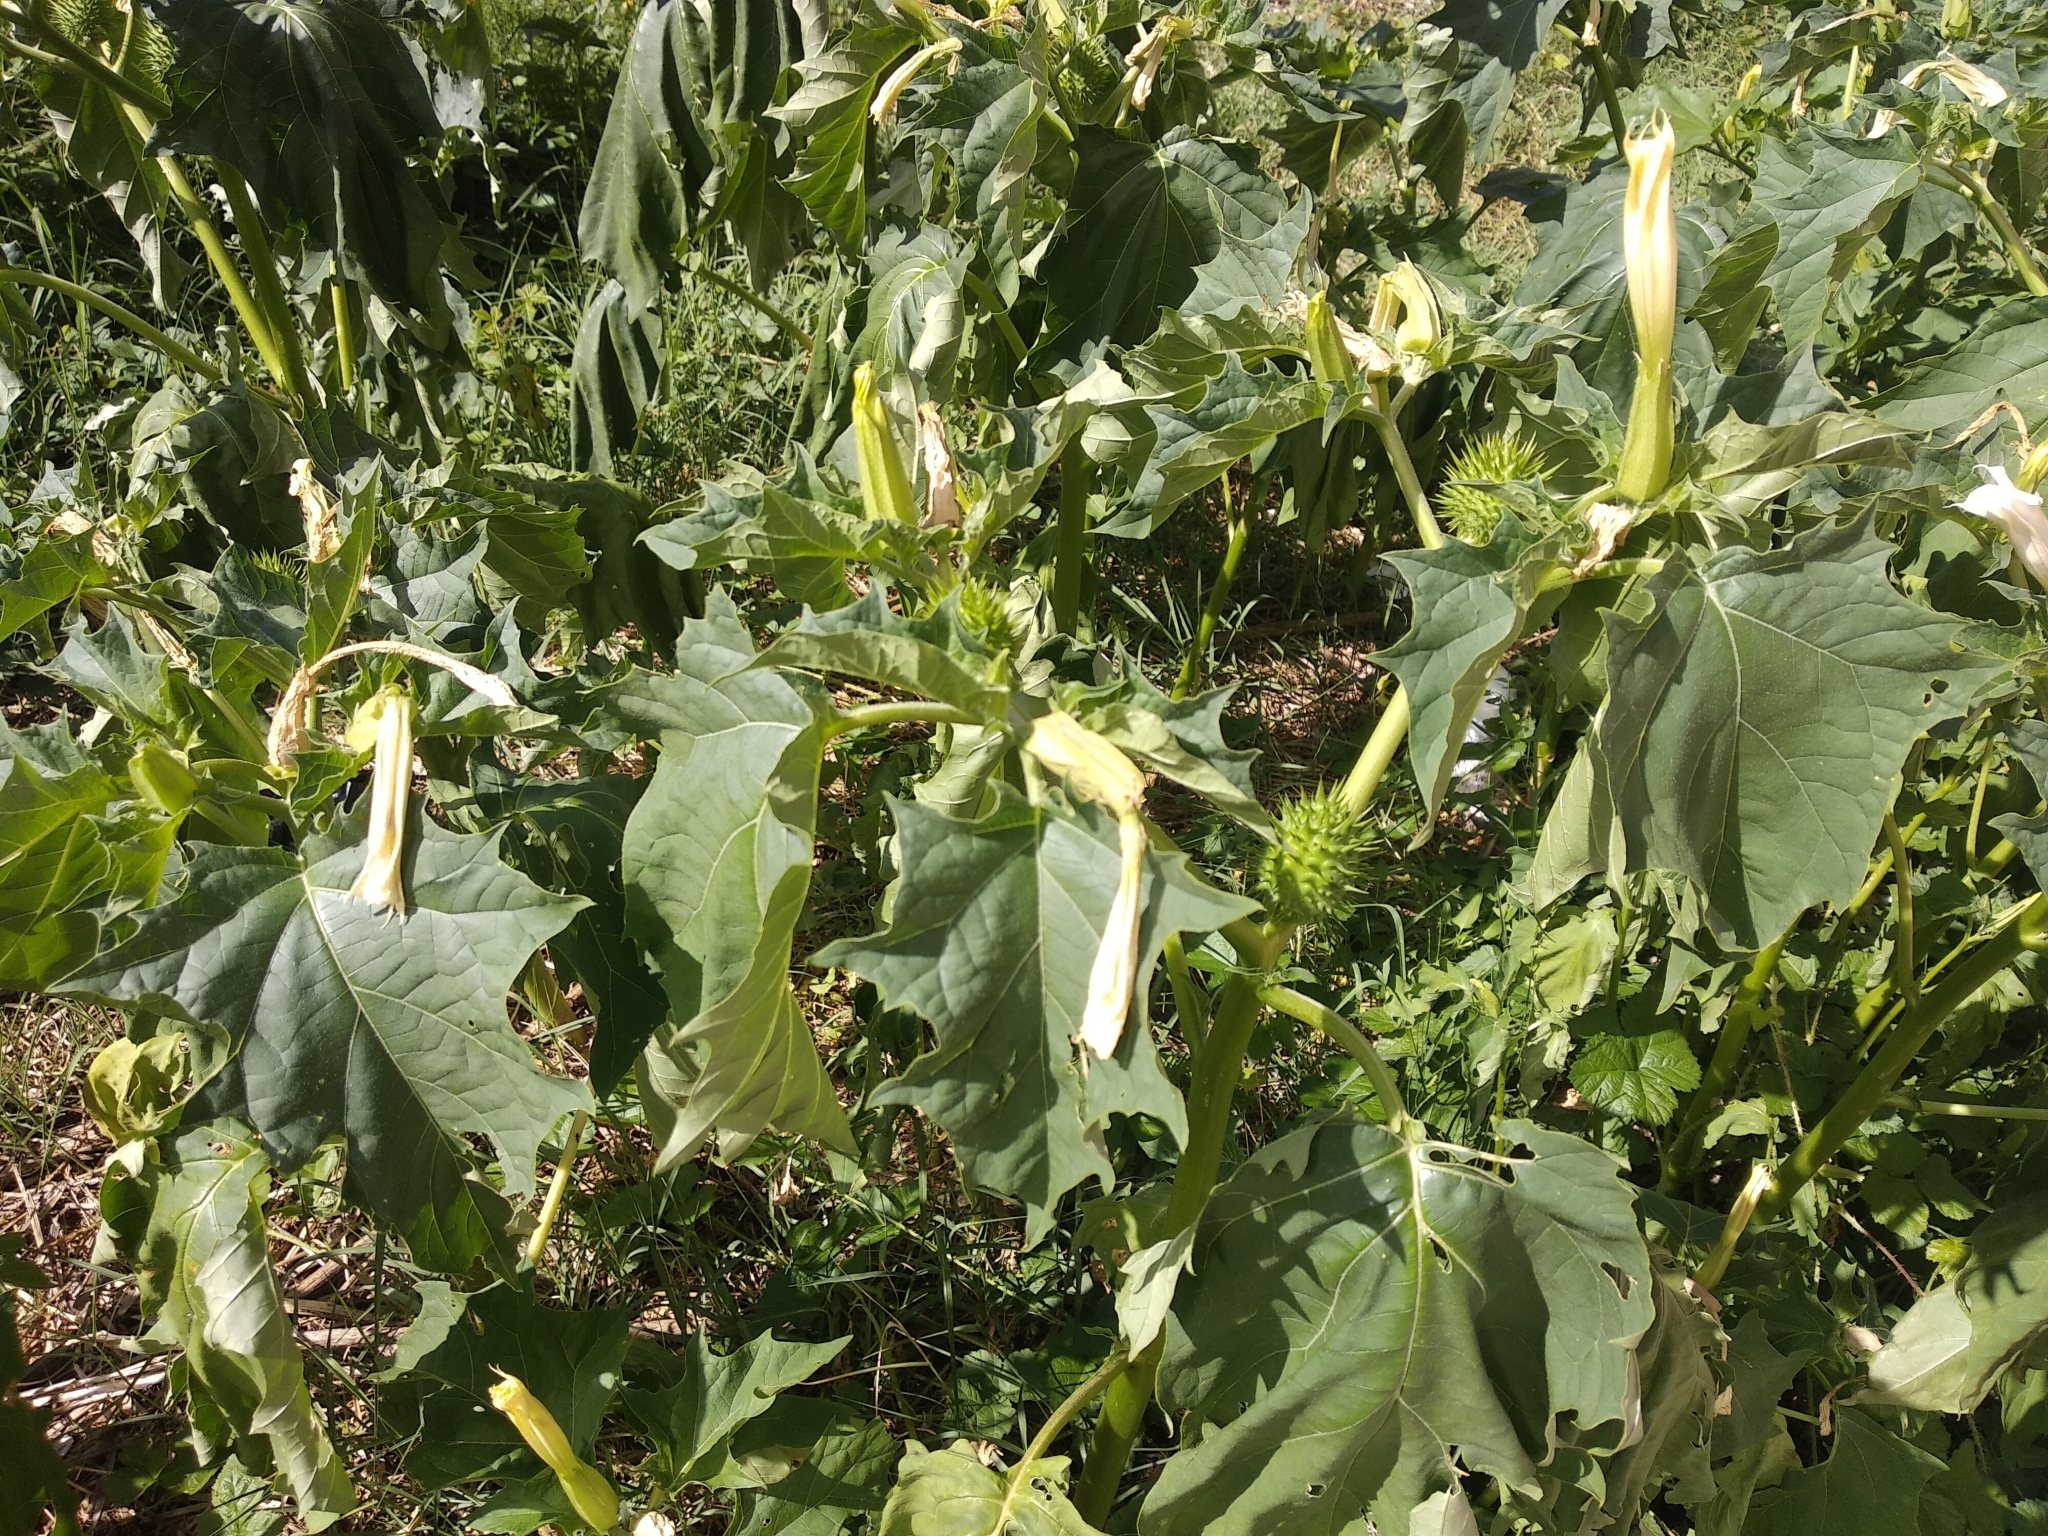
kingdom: Plantae
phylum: Tracheophyta
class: Magnoliopsida
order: Solanales
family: Solanaceae
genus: Datura
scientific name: Datura stramonium
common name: Thorn-apple
